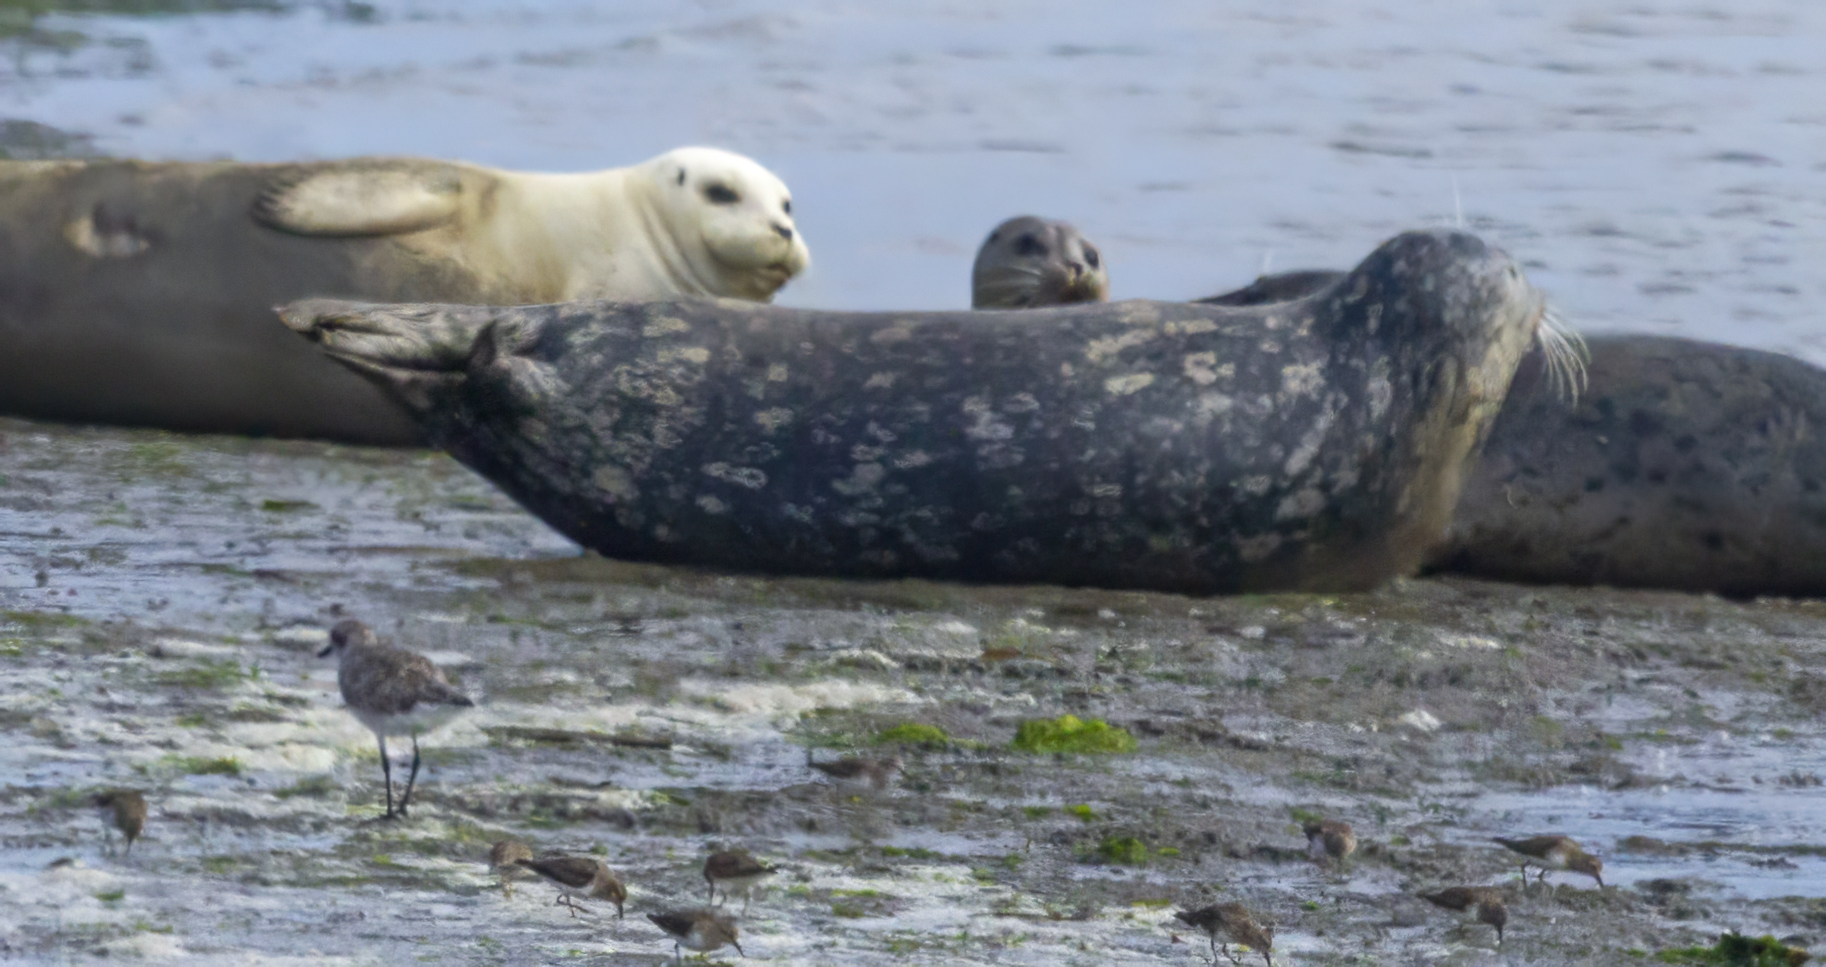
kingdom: Animalia
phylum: Chordata
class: Mammalia
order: Carnivora
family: Phocidae
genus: Phoca
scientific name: Phoca vitulina
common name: Harbor seal
